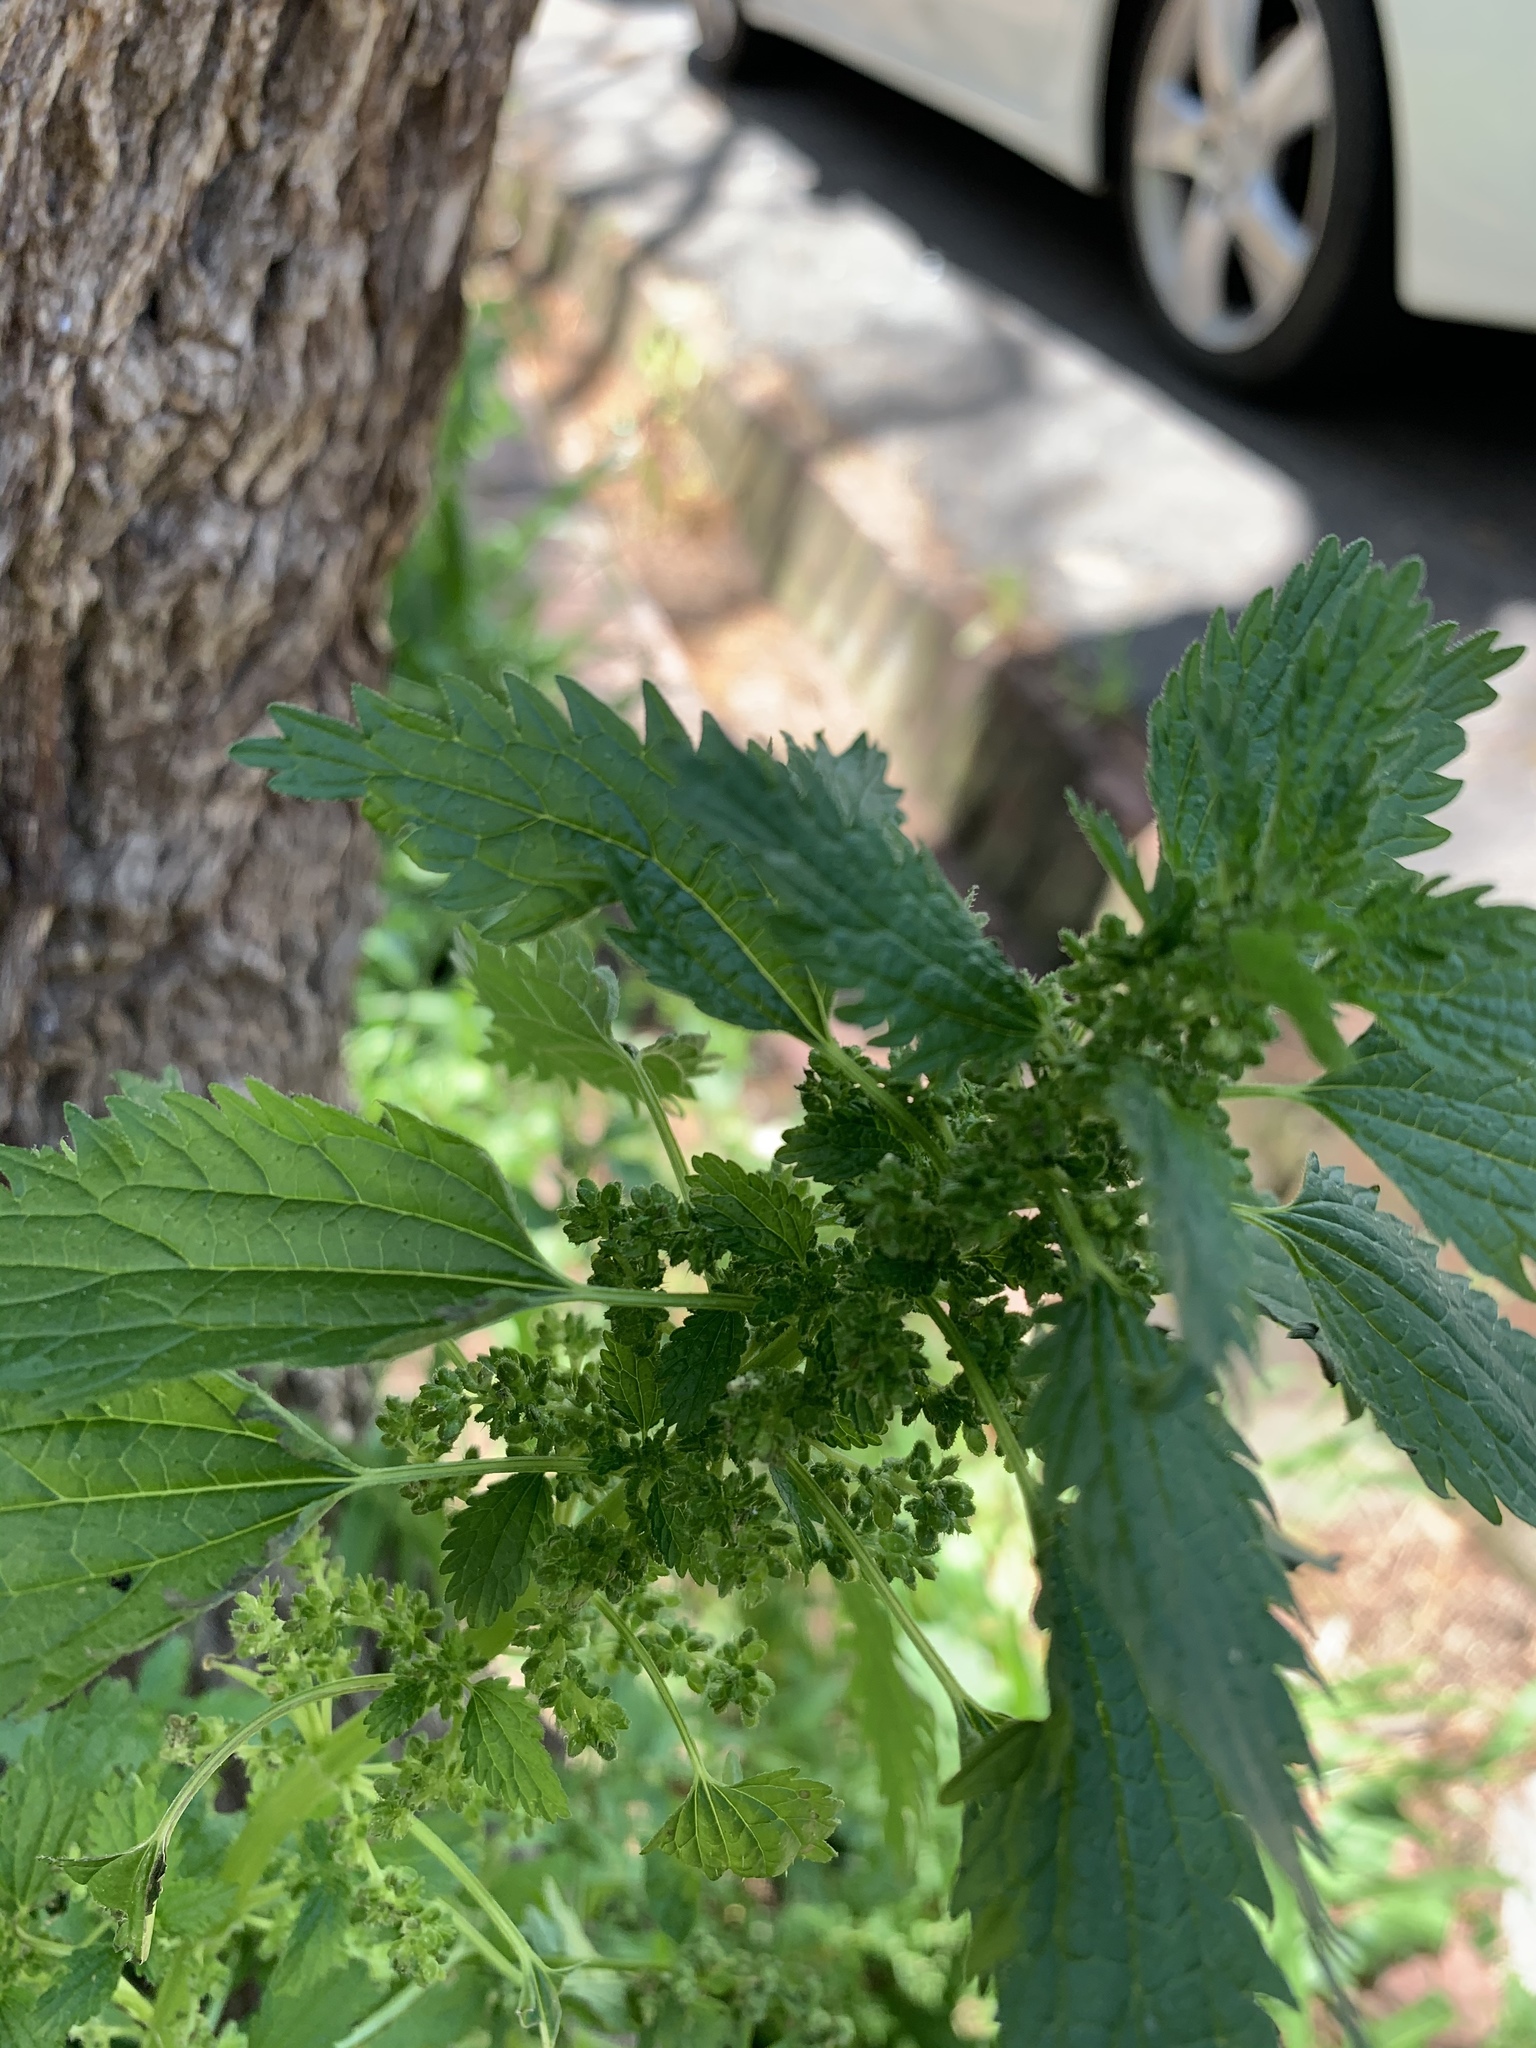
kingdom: Plantae
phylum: Tracheophyta
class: Magnoliopsida
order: Rosales
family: Urticaceae
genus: Urtica
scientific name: Urtica urens
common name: Dwarf nettle
